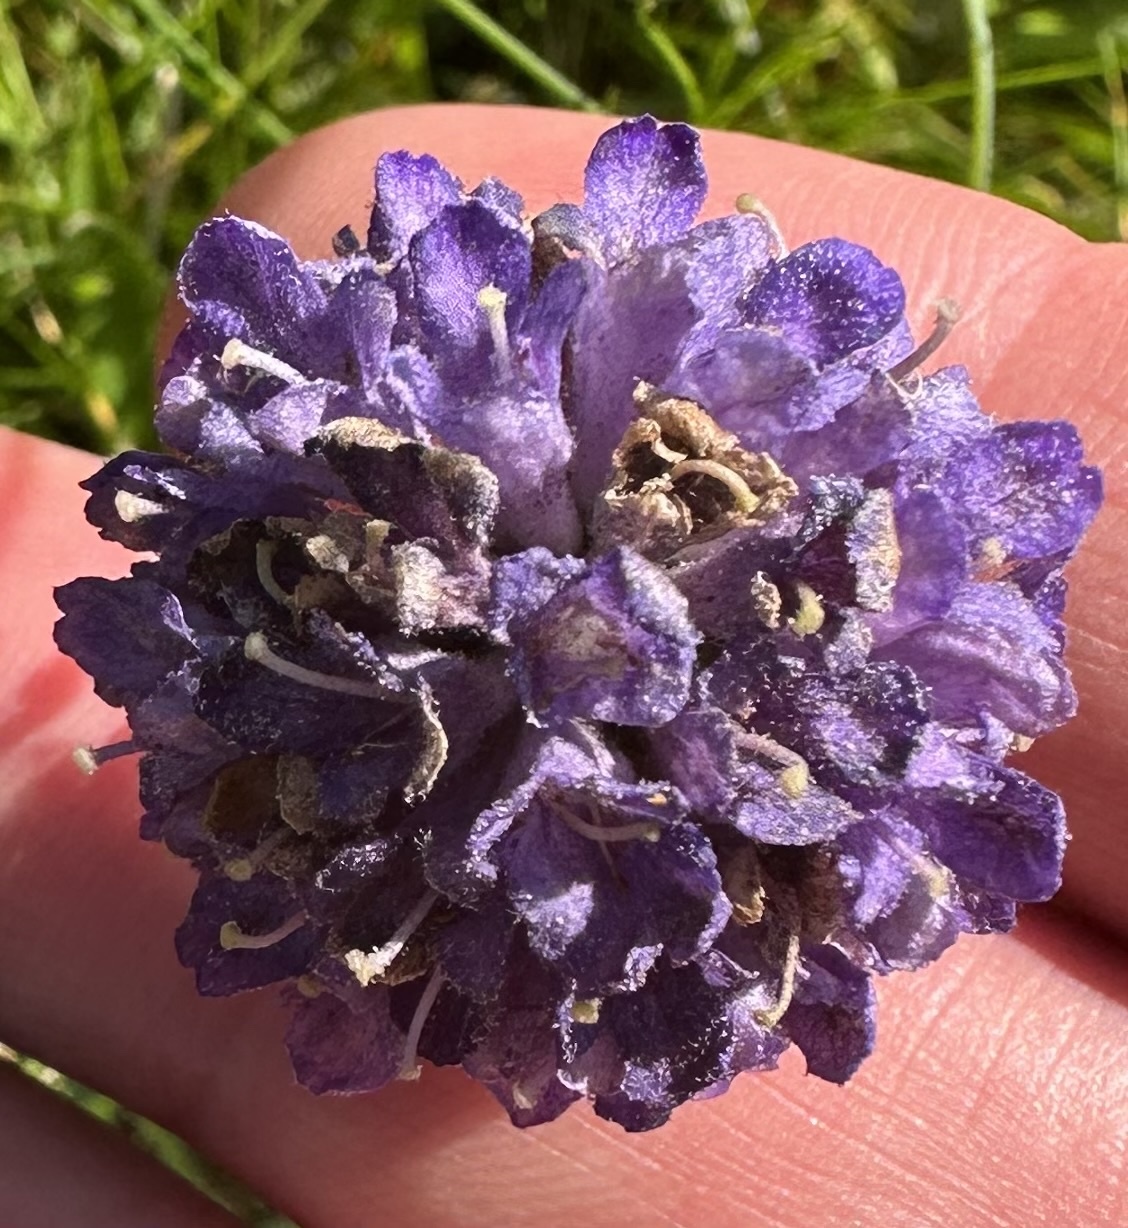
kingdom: Plantae
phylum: Tracheophyta
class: Magnoliopsida
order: Dipsacales
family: Caprifoliaceae
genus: Succisa
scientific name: Succisa pratensis
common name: Devil's-bit
